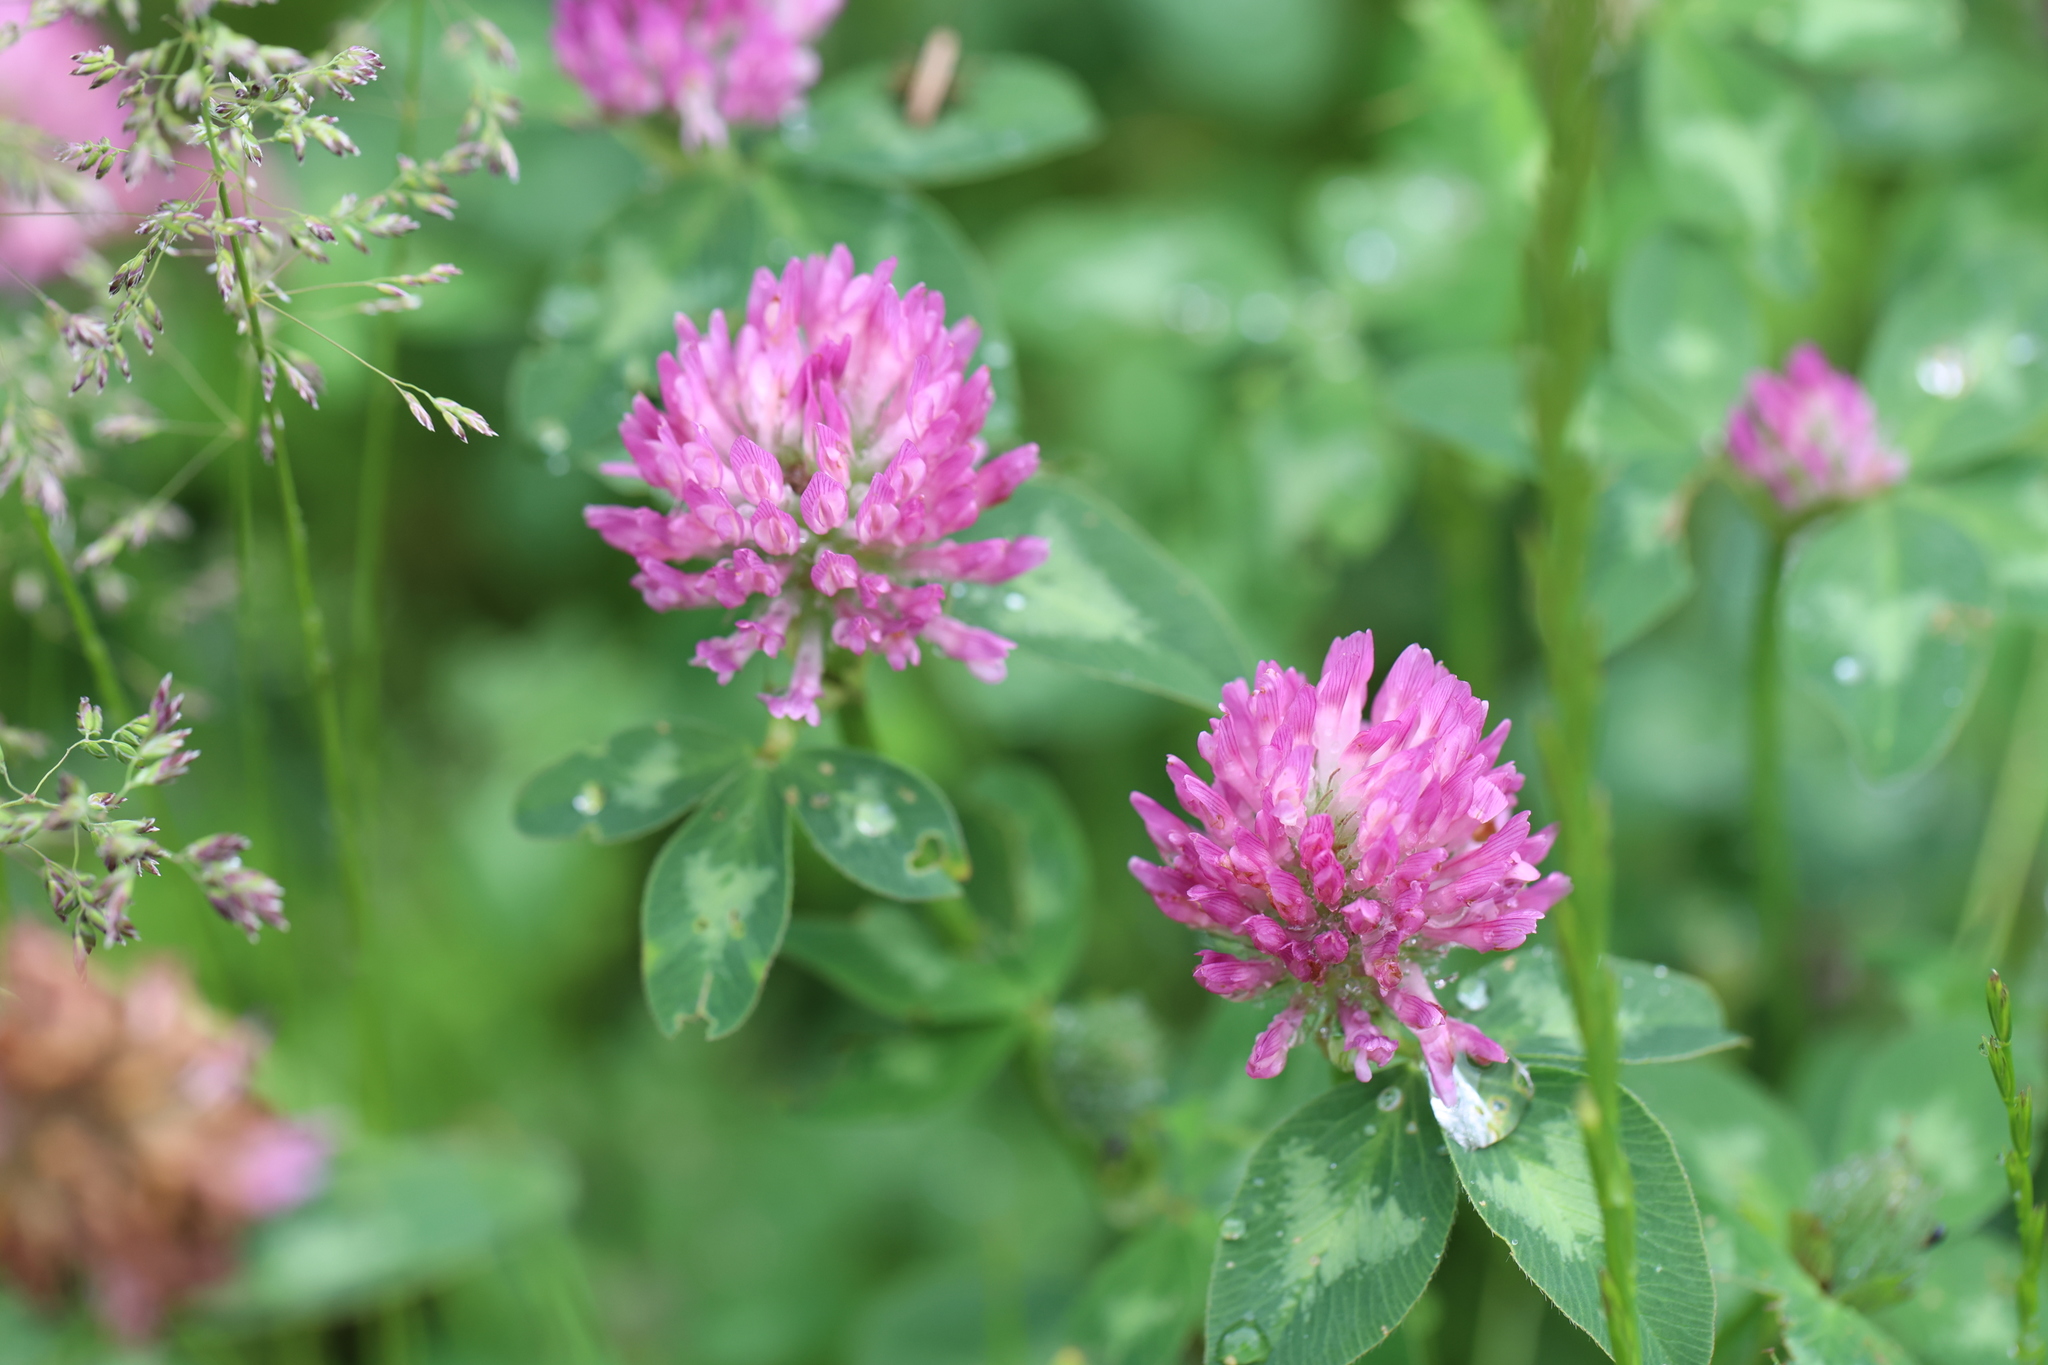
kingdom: Plantae
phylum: Tracheophyta
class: Magnoliopsida
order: Fabales
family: Fabaceae
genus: Trifolium
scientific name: Trifolium pratense
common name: Red clover
